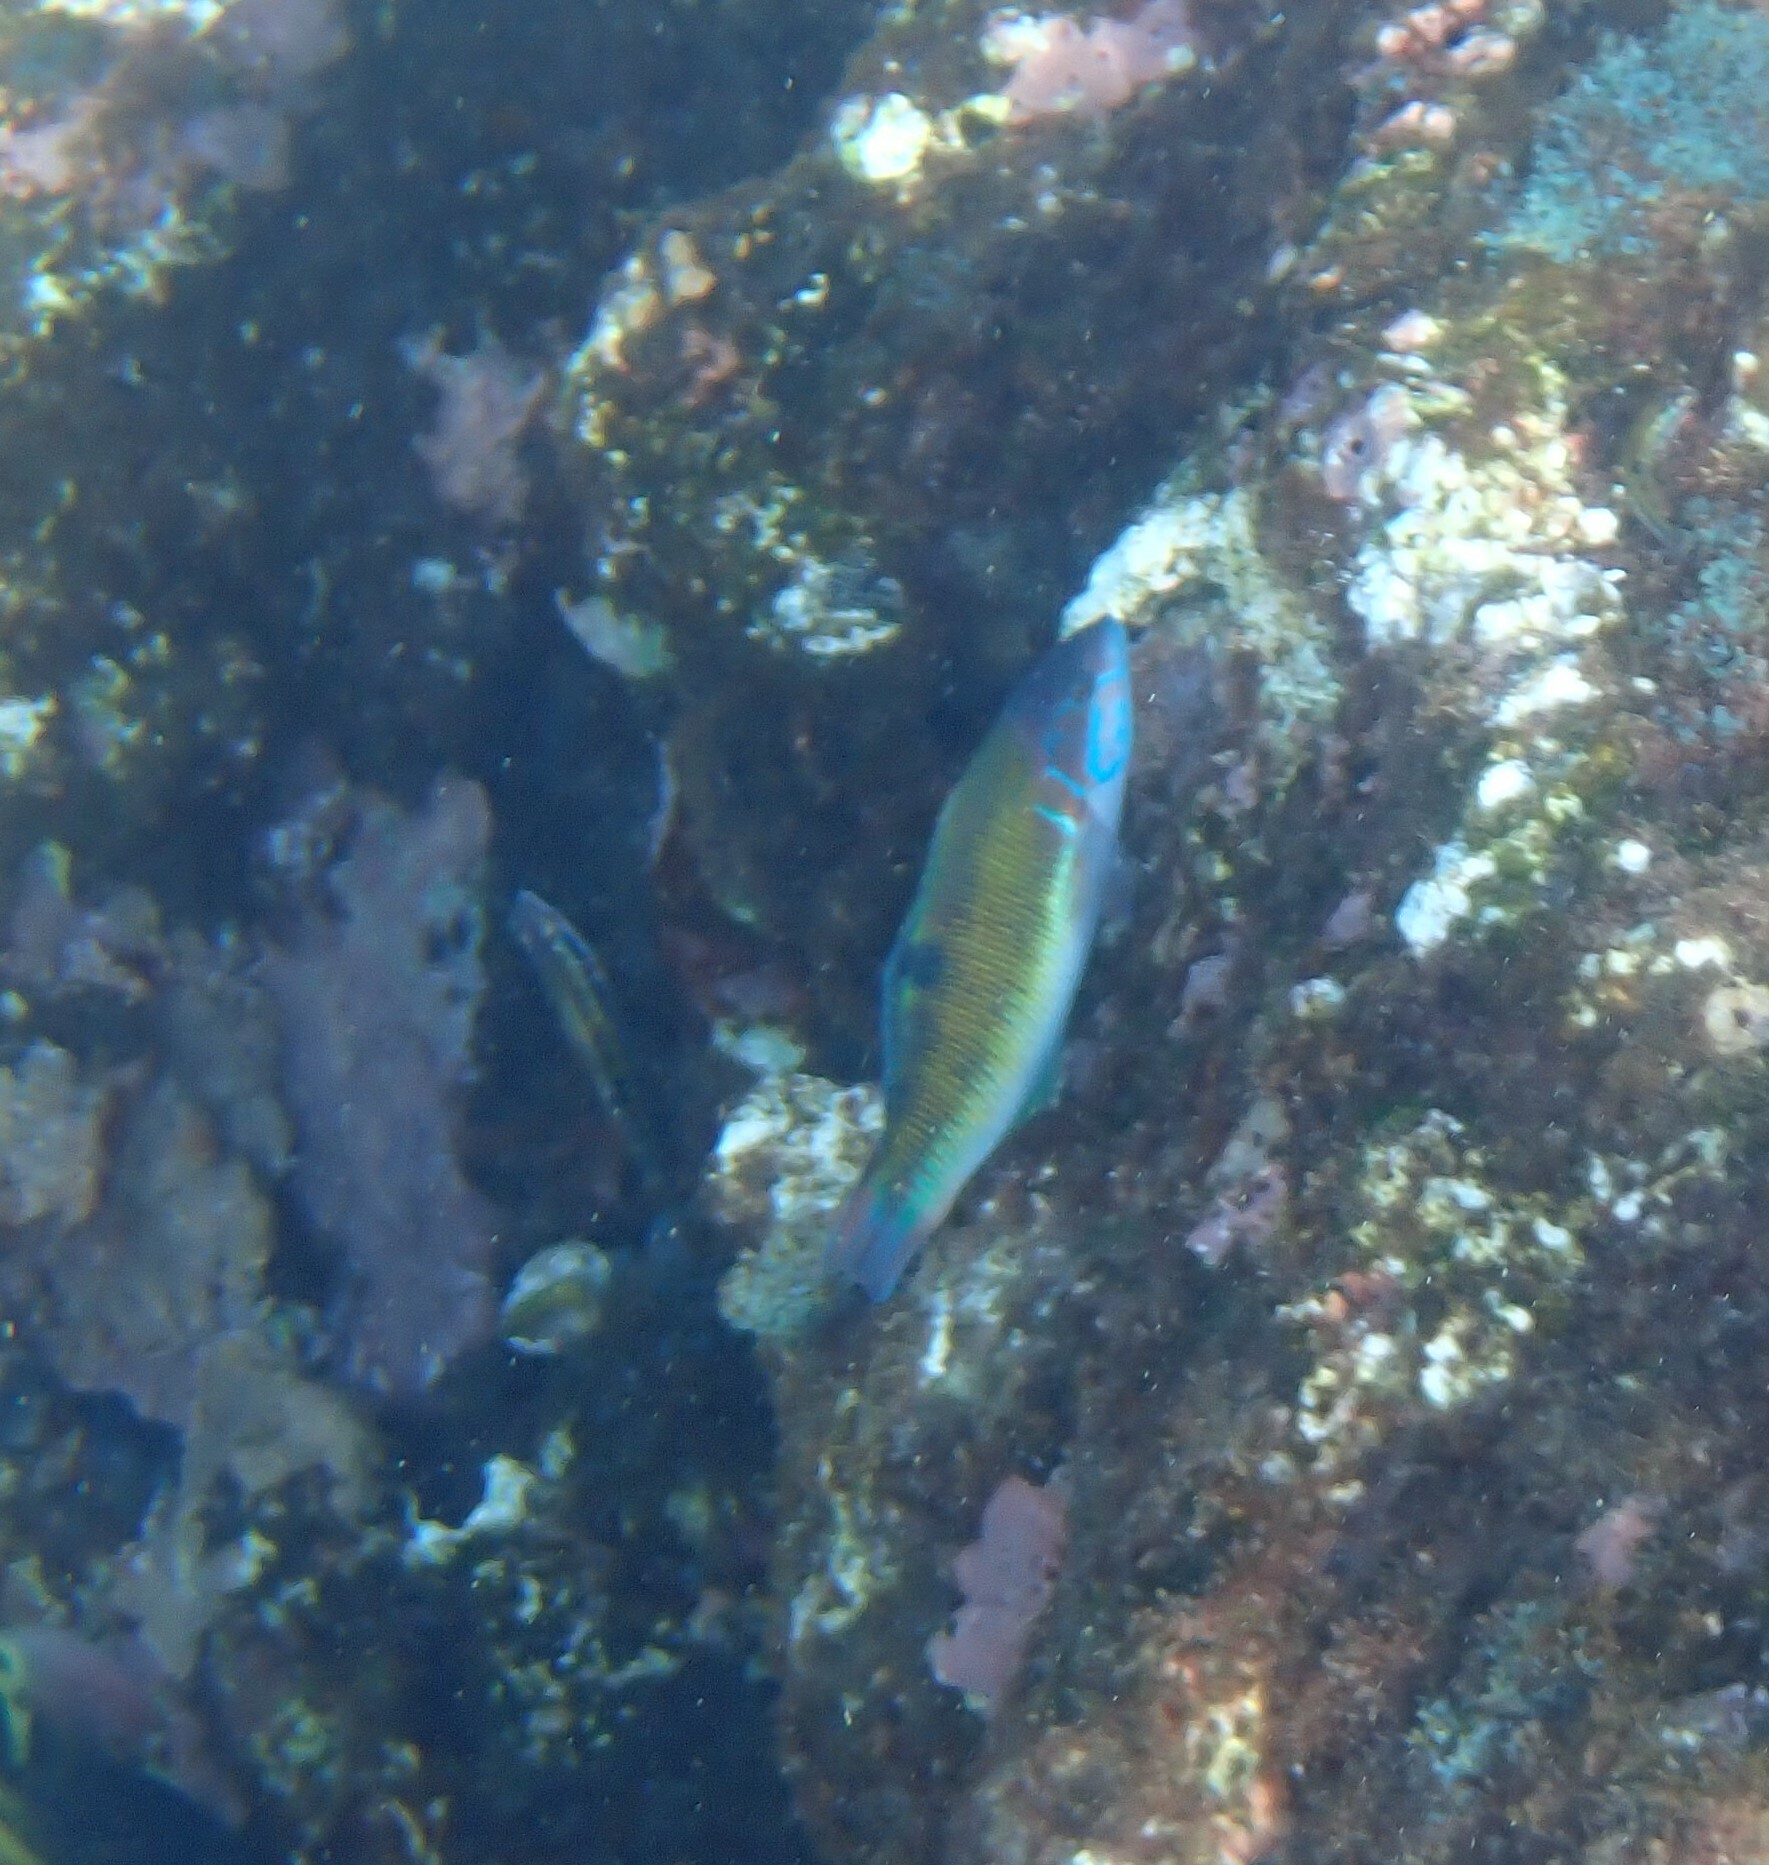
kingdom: Animalia
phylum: Chordata
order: Perciformes
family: Labridae
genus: Thalassoma
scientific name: Thalassoma pavo
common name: Ornate wrasse
